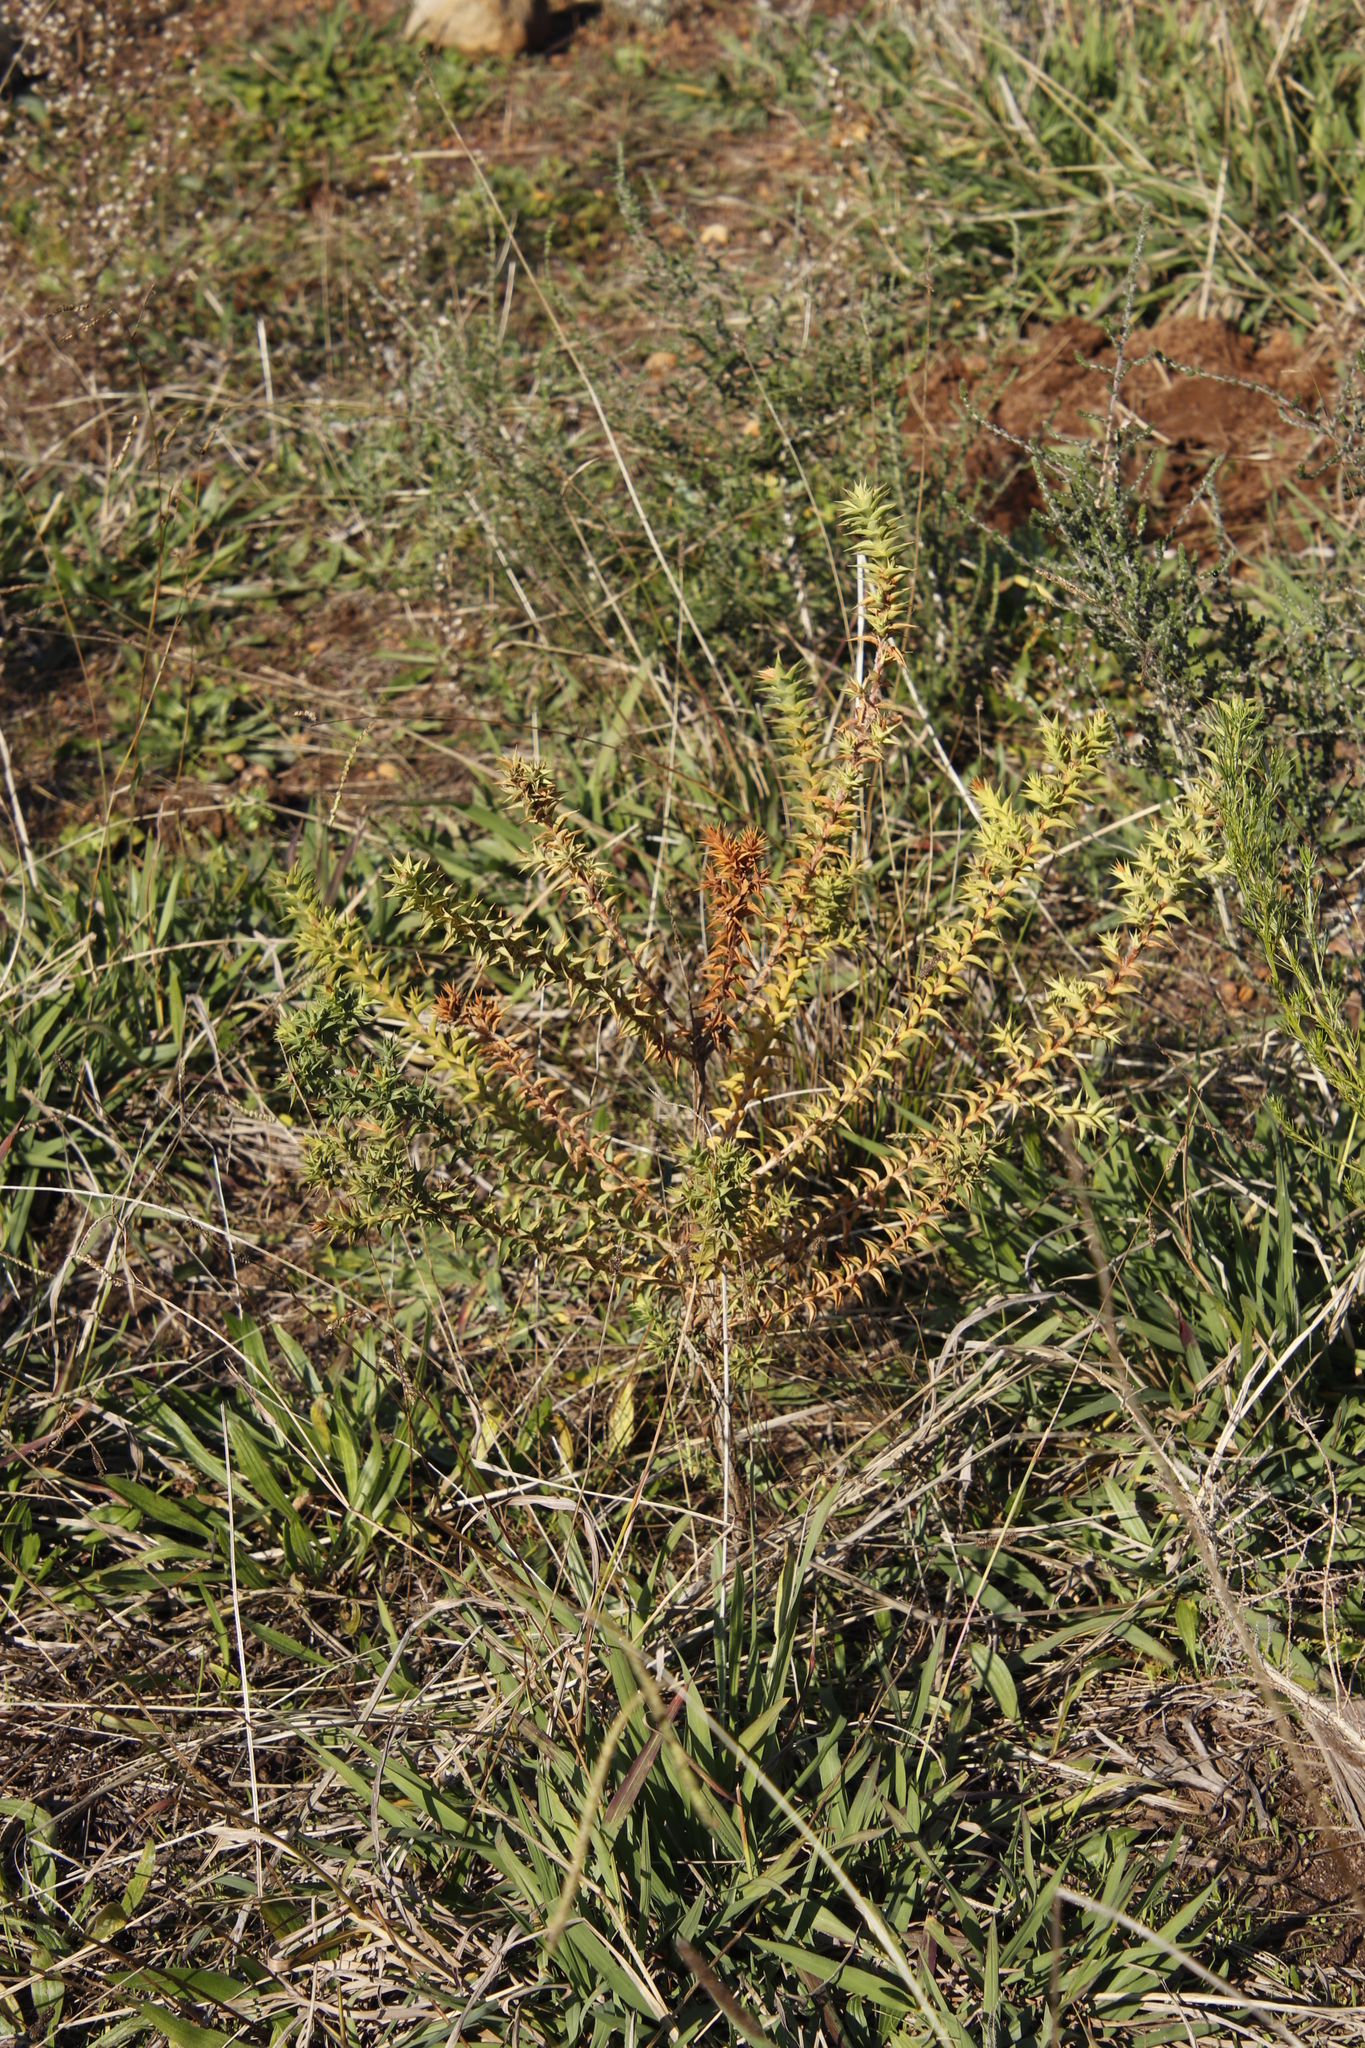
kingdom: Plantae
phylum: Tracheophyta
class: Magnoliopsida
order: Fabales
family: Fabaceae
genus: Aspalathus
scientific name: Aspalathus cordata
